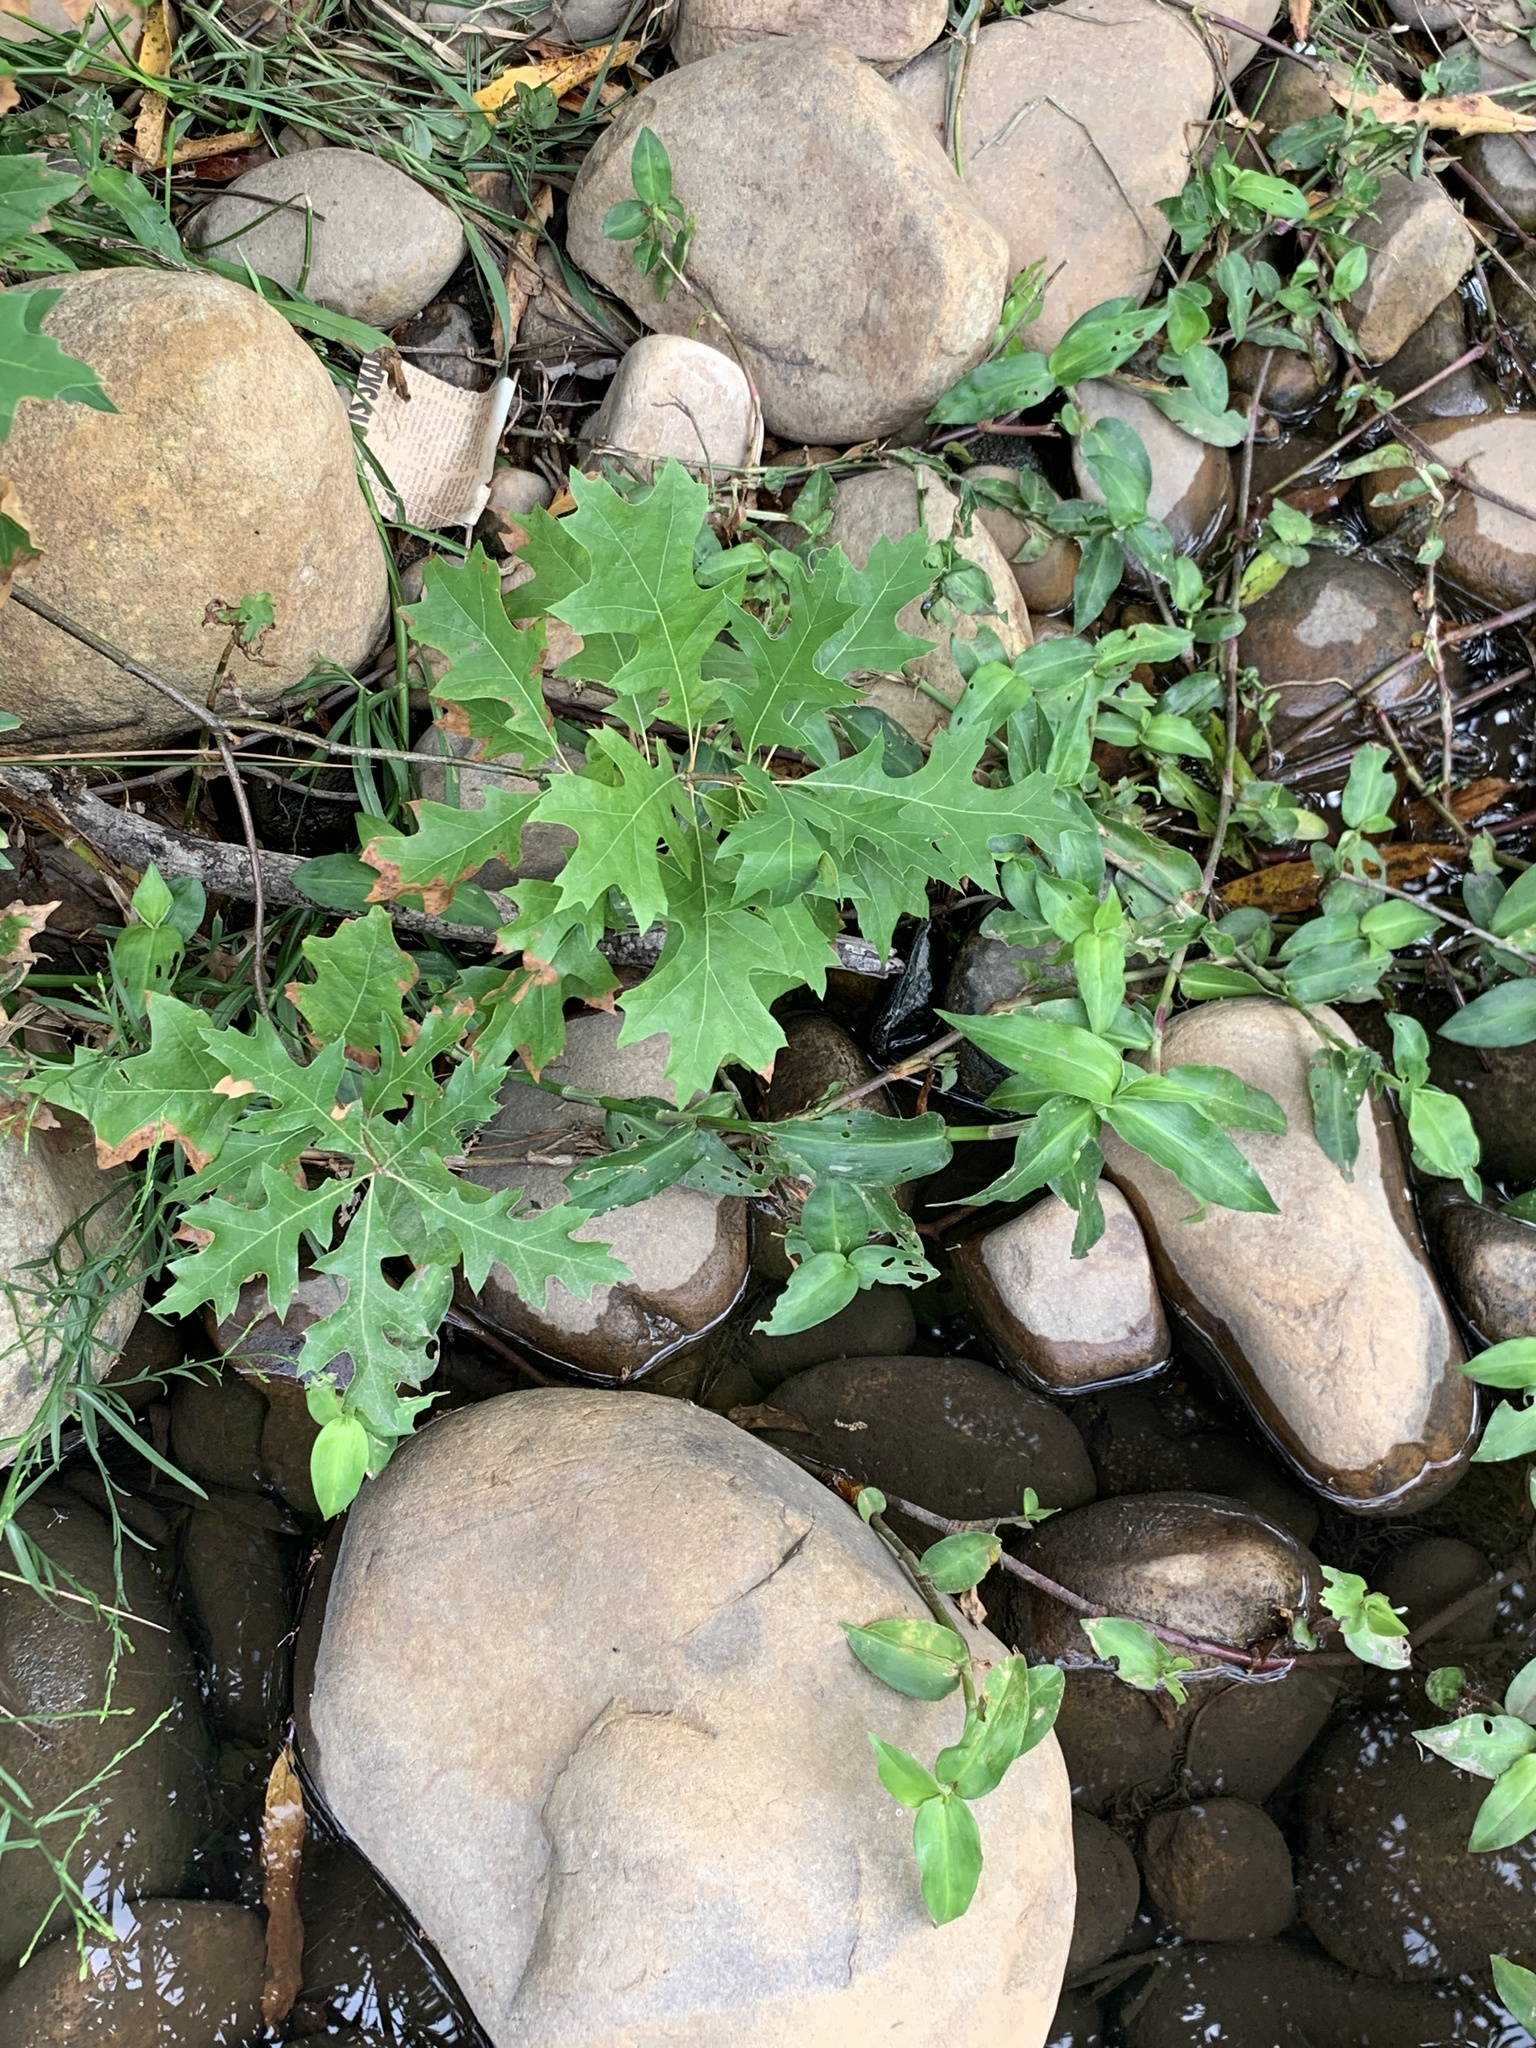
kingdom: Plantae
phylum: Tracheophyta
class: Magnoliopsida
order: Fagales
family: Fagaceae
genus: Quercus
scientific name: Quercus palustris
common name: Pin oak
